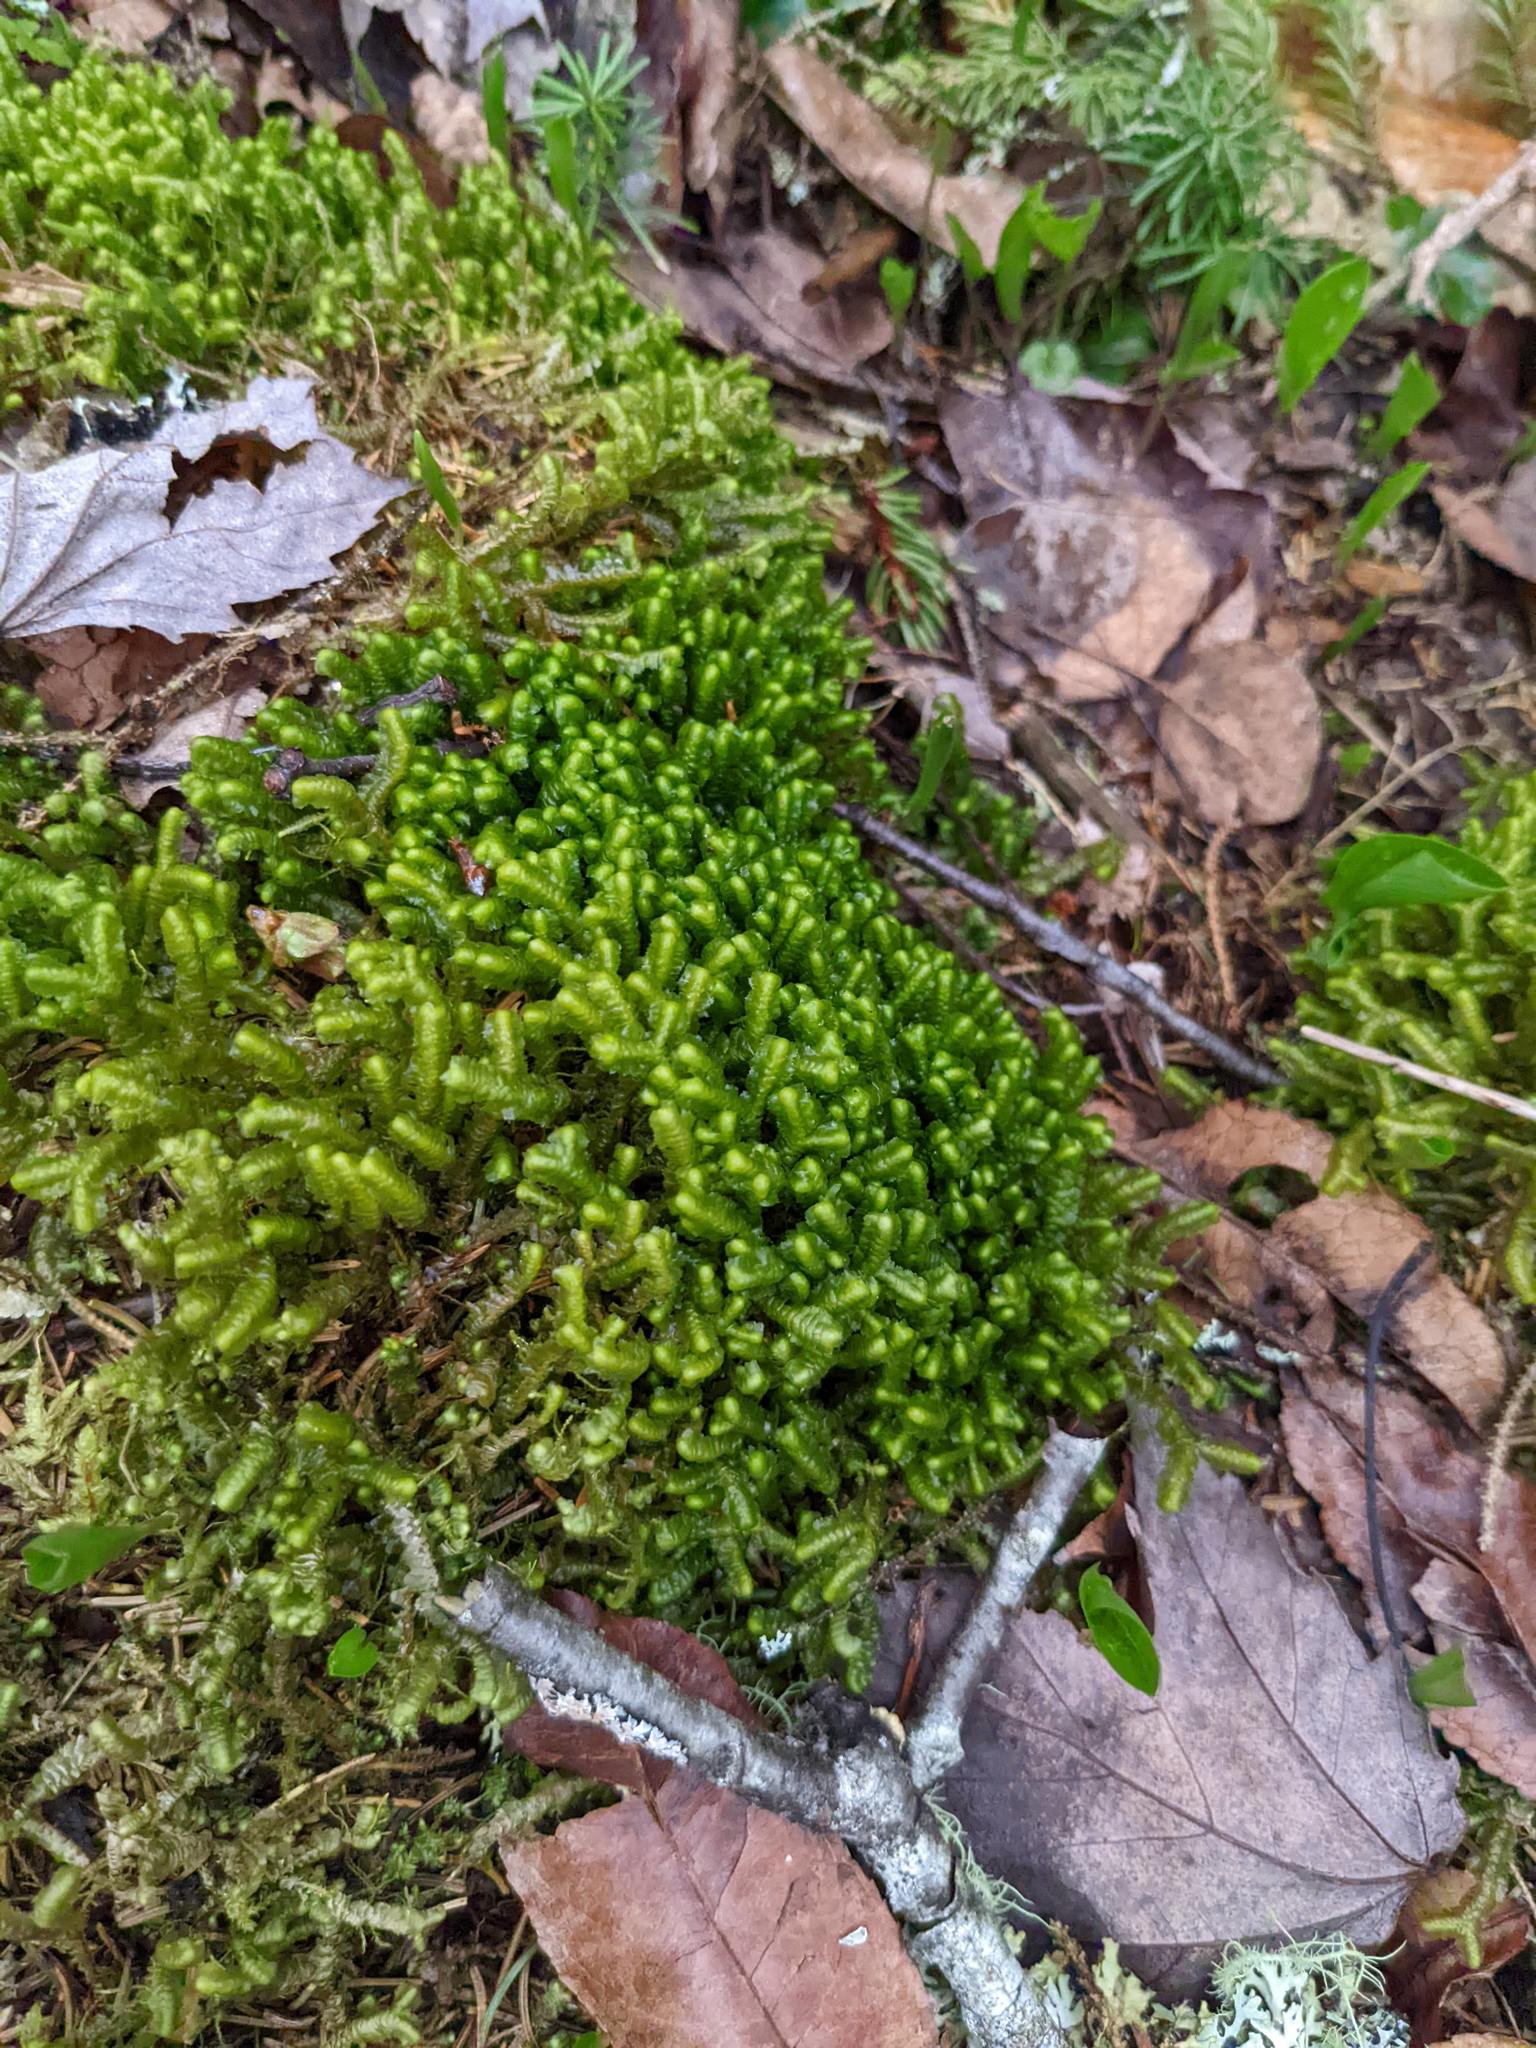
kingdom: Plantae
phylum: Marchantiophyta
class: Jungermanniopsida
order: Jungermanniales
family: Lepidoziaceae
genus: Bazzania
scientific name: Bazzania trilobata
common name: Three-lobed whipwort
